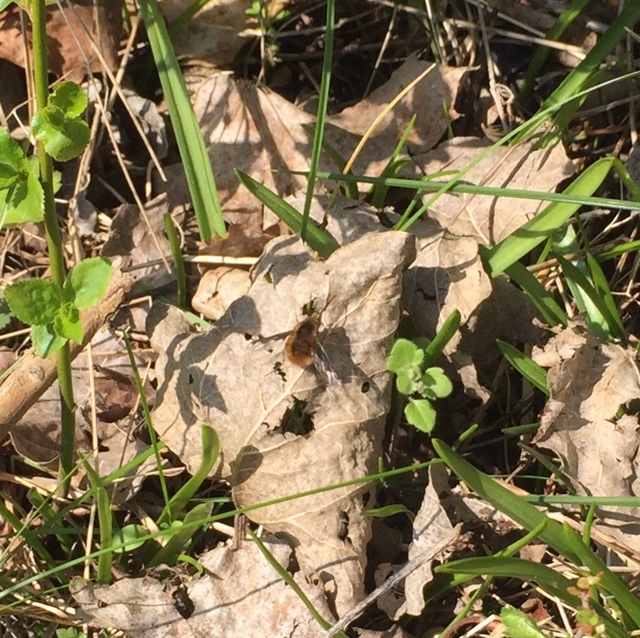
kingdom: Animalia
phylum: Arthropoda
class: Insecta
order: Diptera
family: Bombyliidae
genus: Bombylius
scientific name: Bombylius major
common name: Bee fly
